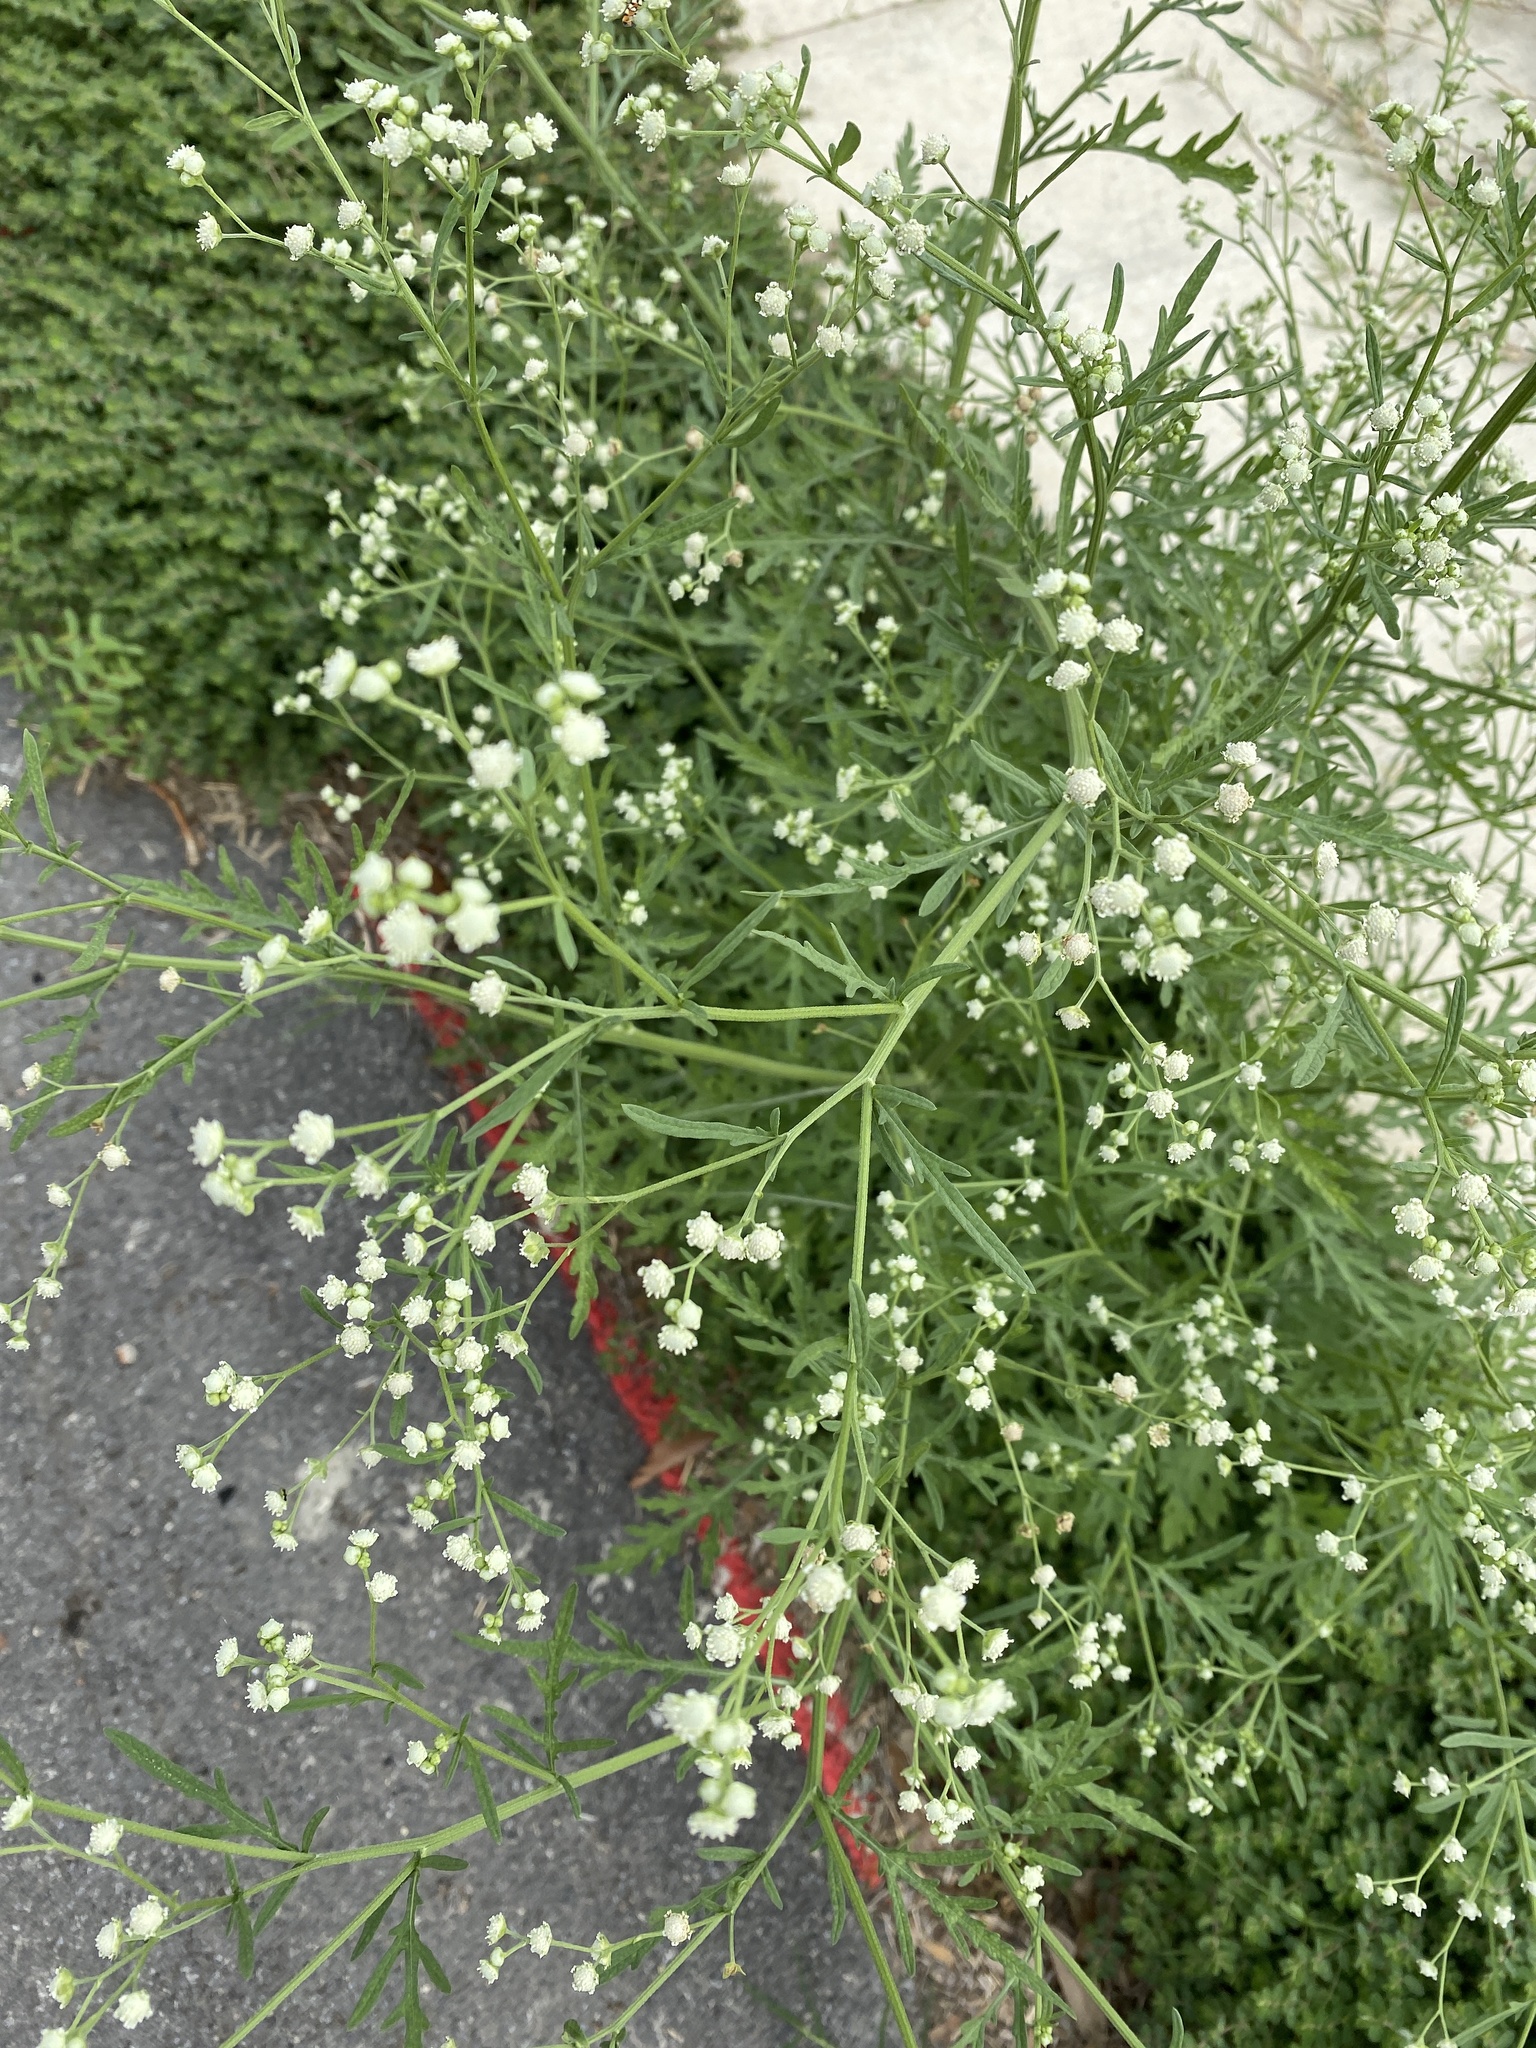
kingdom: Plantae
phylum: Tracheophyta
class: Magnoliopsida
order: Asterales
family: Asteraceae
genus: Parthenium
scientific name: Parthenium hysterophorus
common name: Santa maria feverfew
